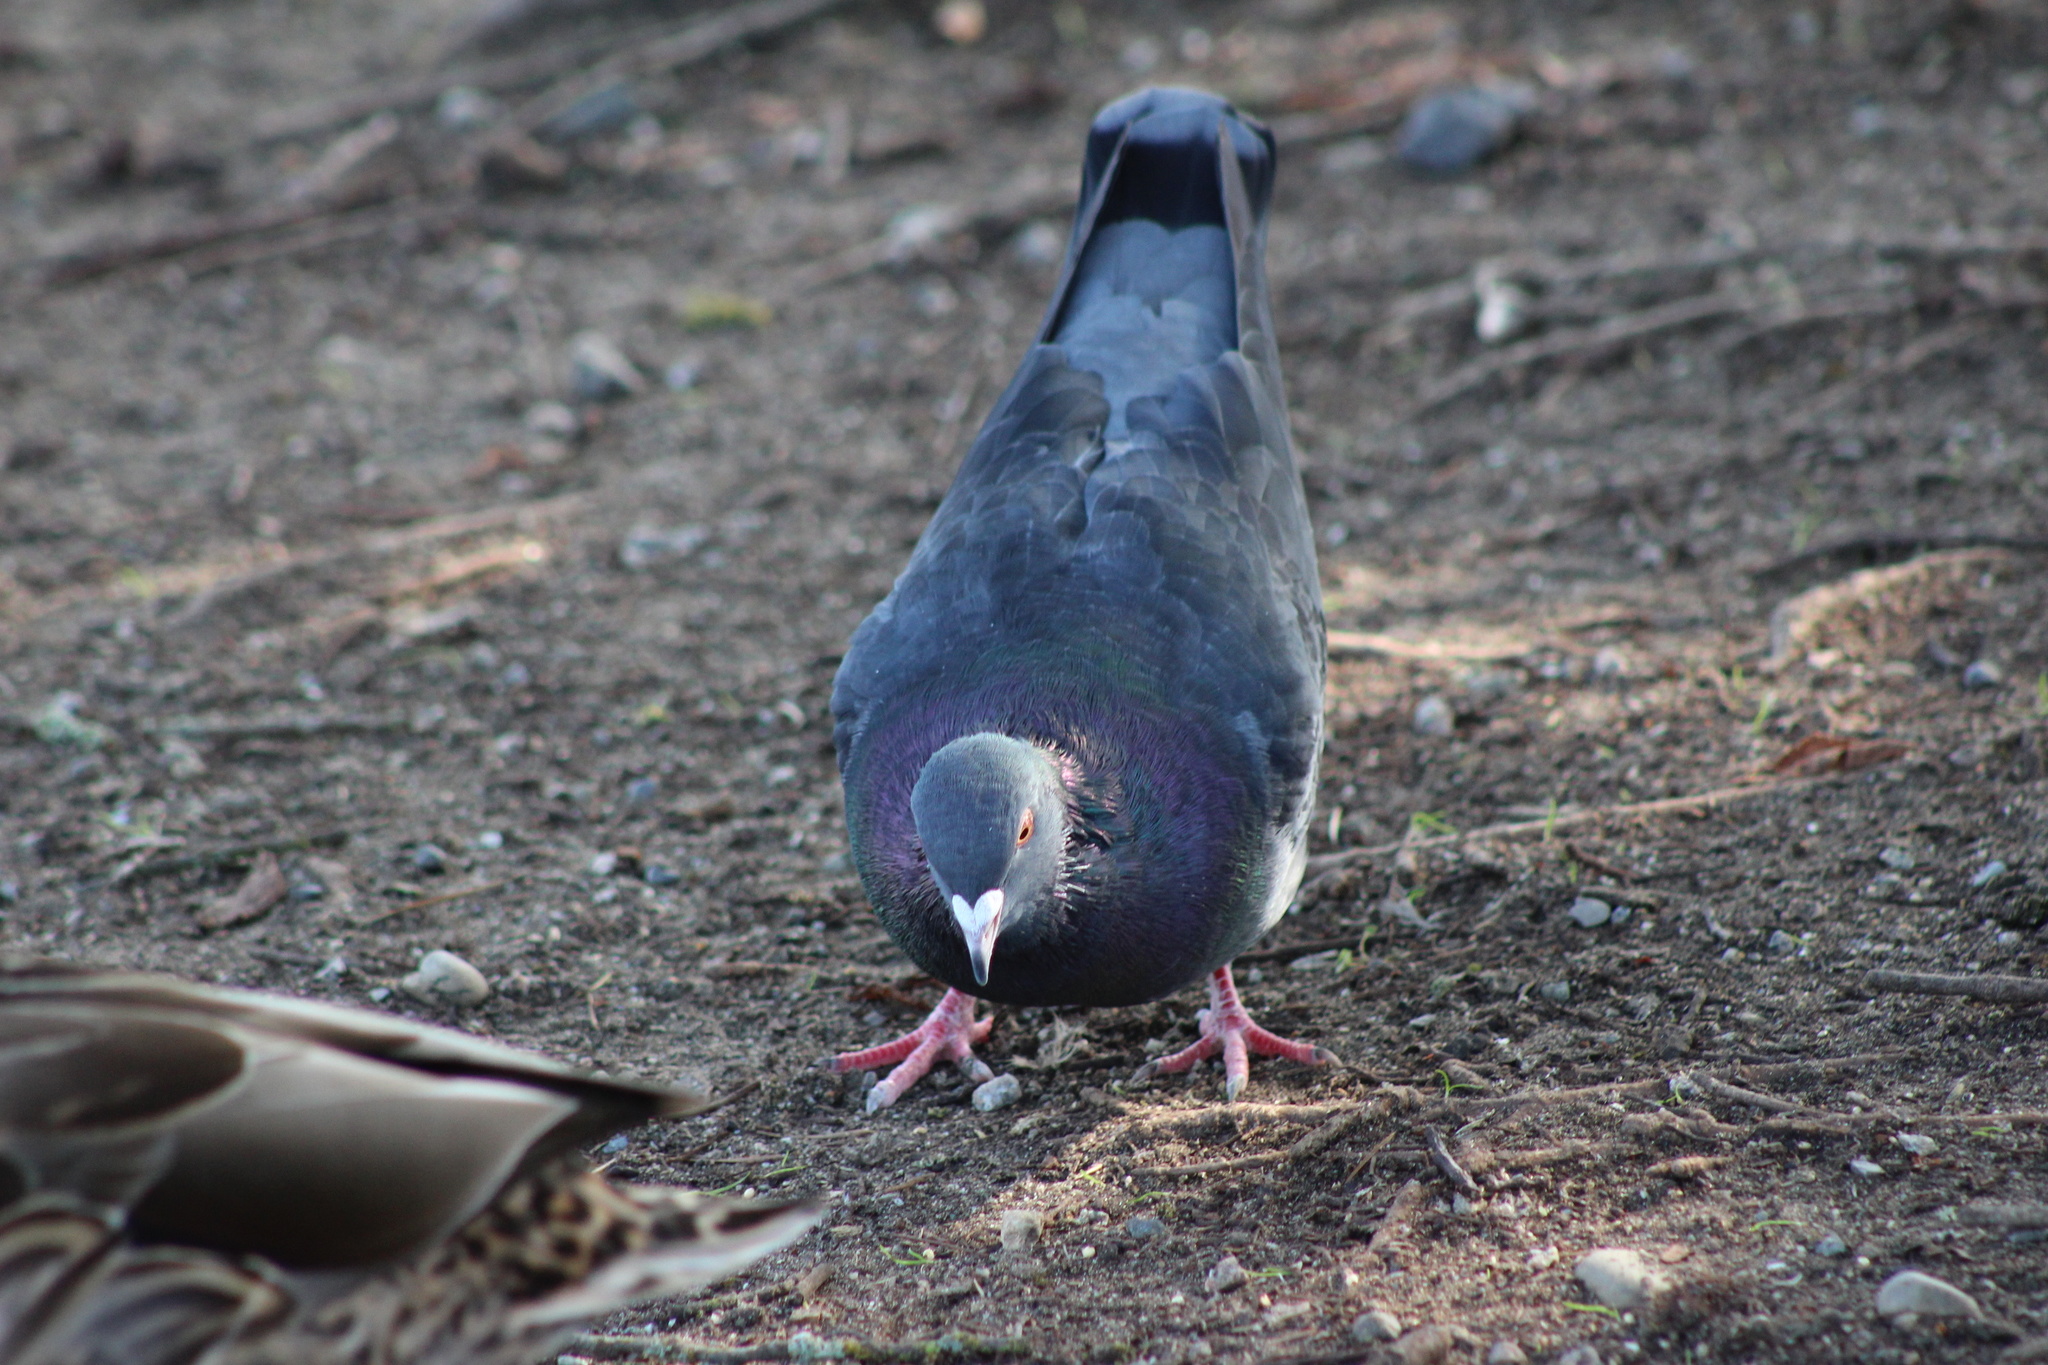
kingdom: Animalia
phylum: Chordata
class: Aves
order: Columbiformes
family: Columbidae
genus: Columba
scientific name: Columba livia
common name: Rock pigeon
